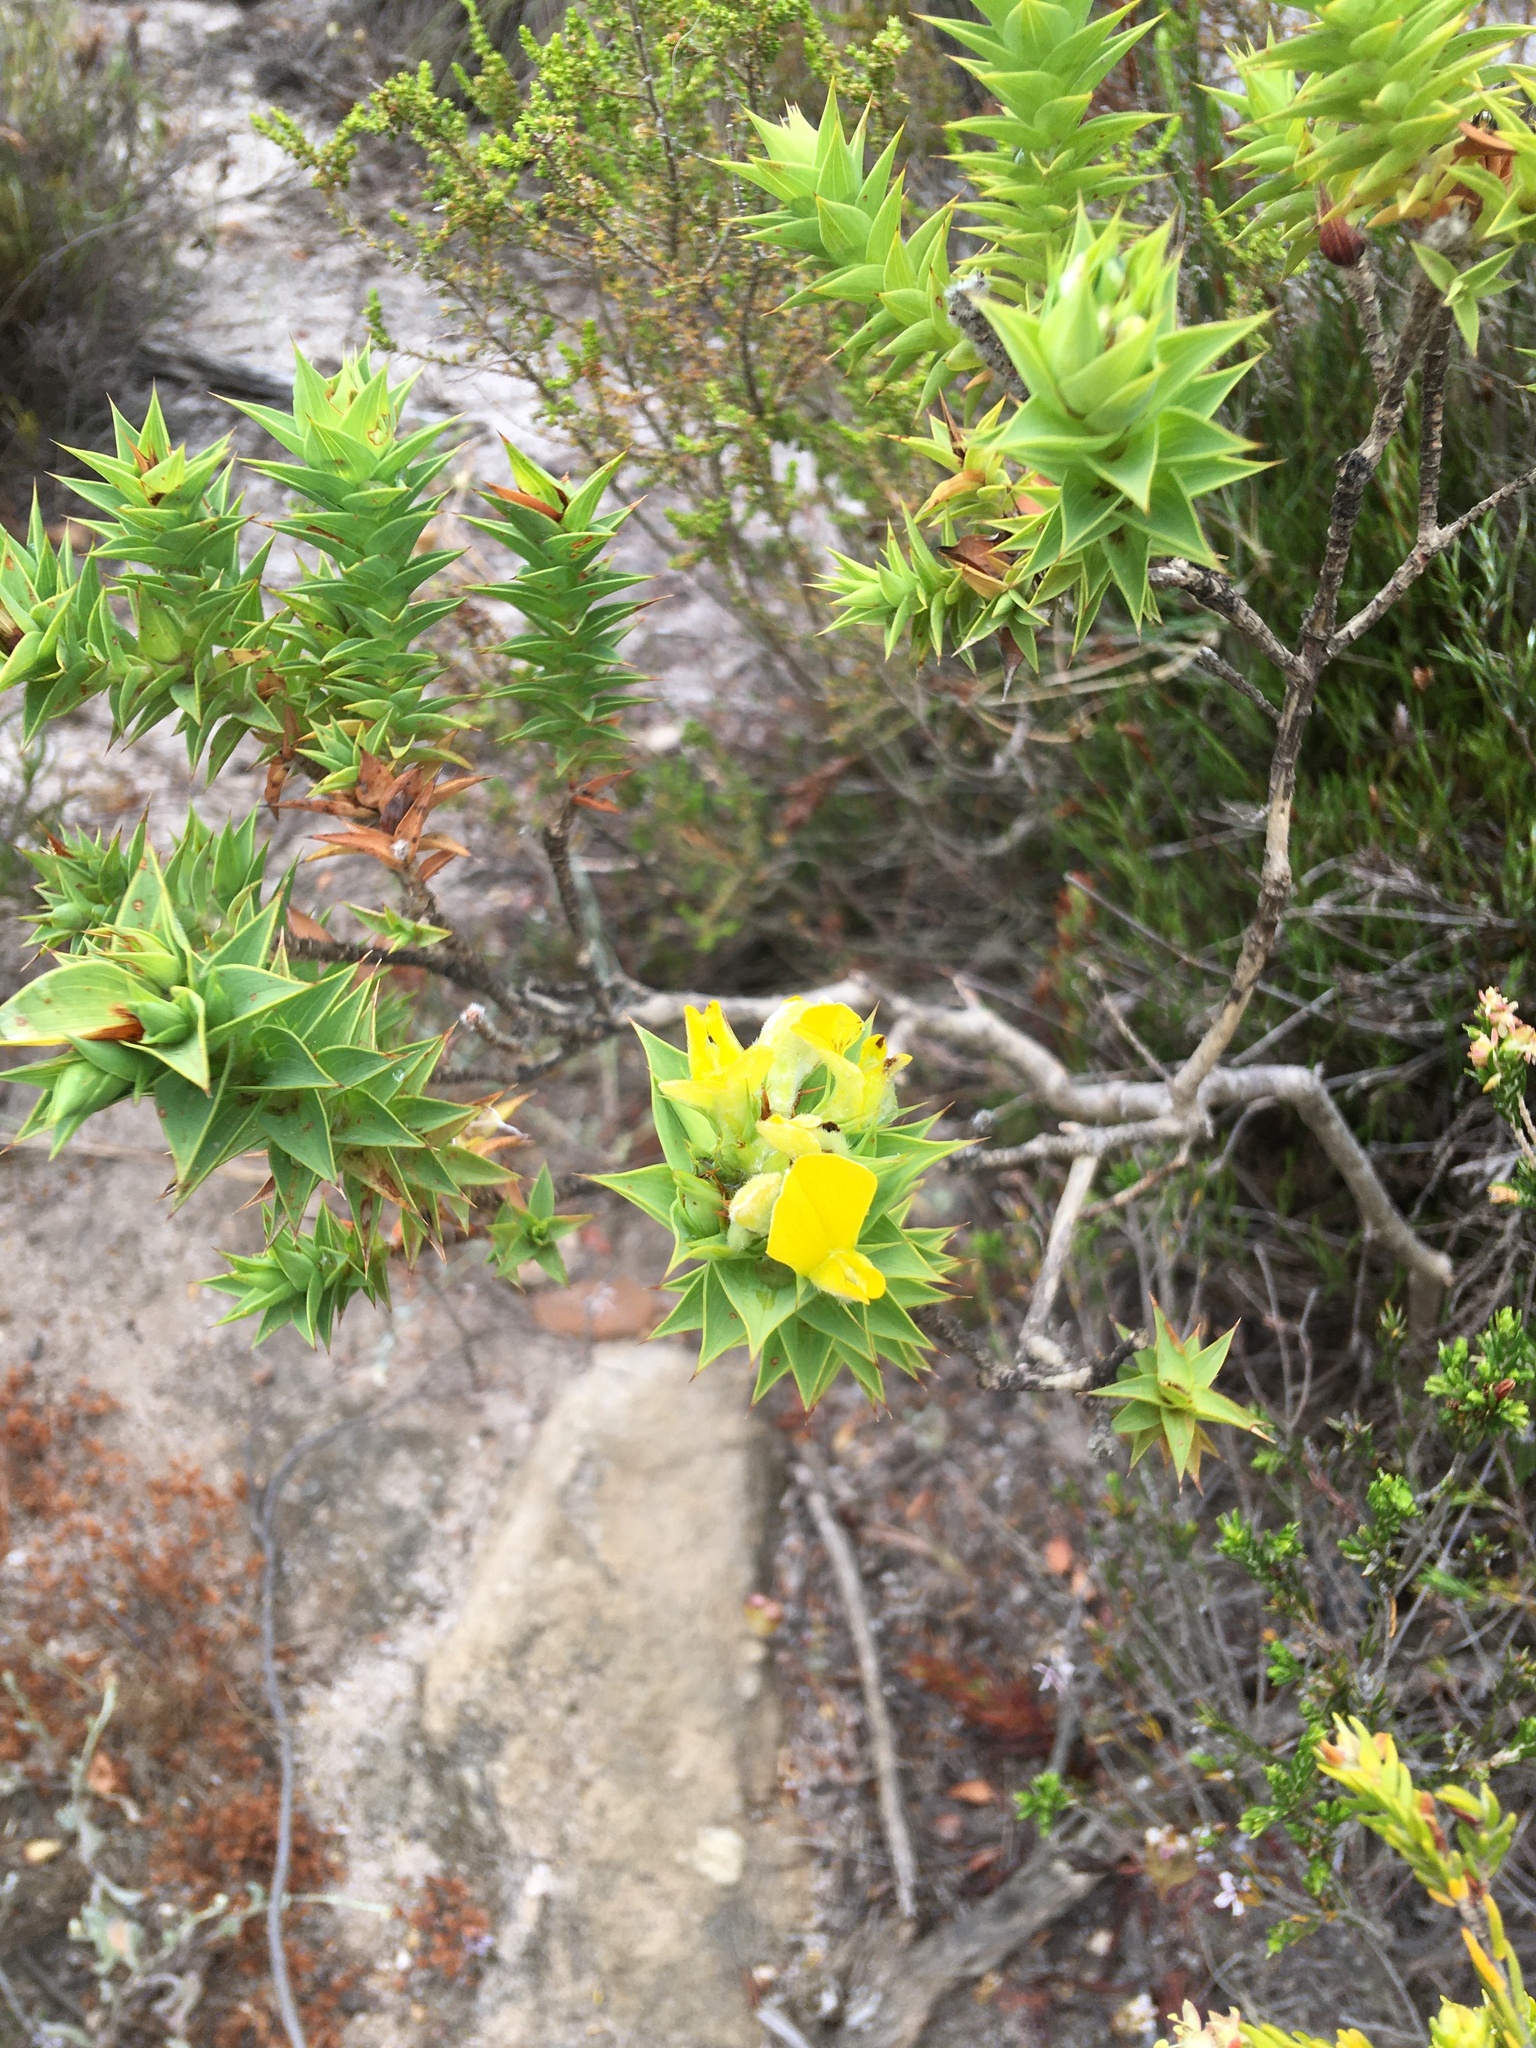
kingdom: Plantae
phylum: Tracheophyta
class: Magnoliopsida
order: Fabales
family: Fabaceae
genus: Aspalathus
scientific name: Aspalathus cordata
